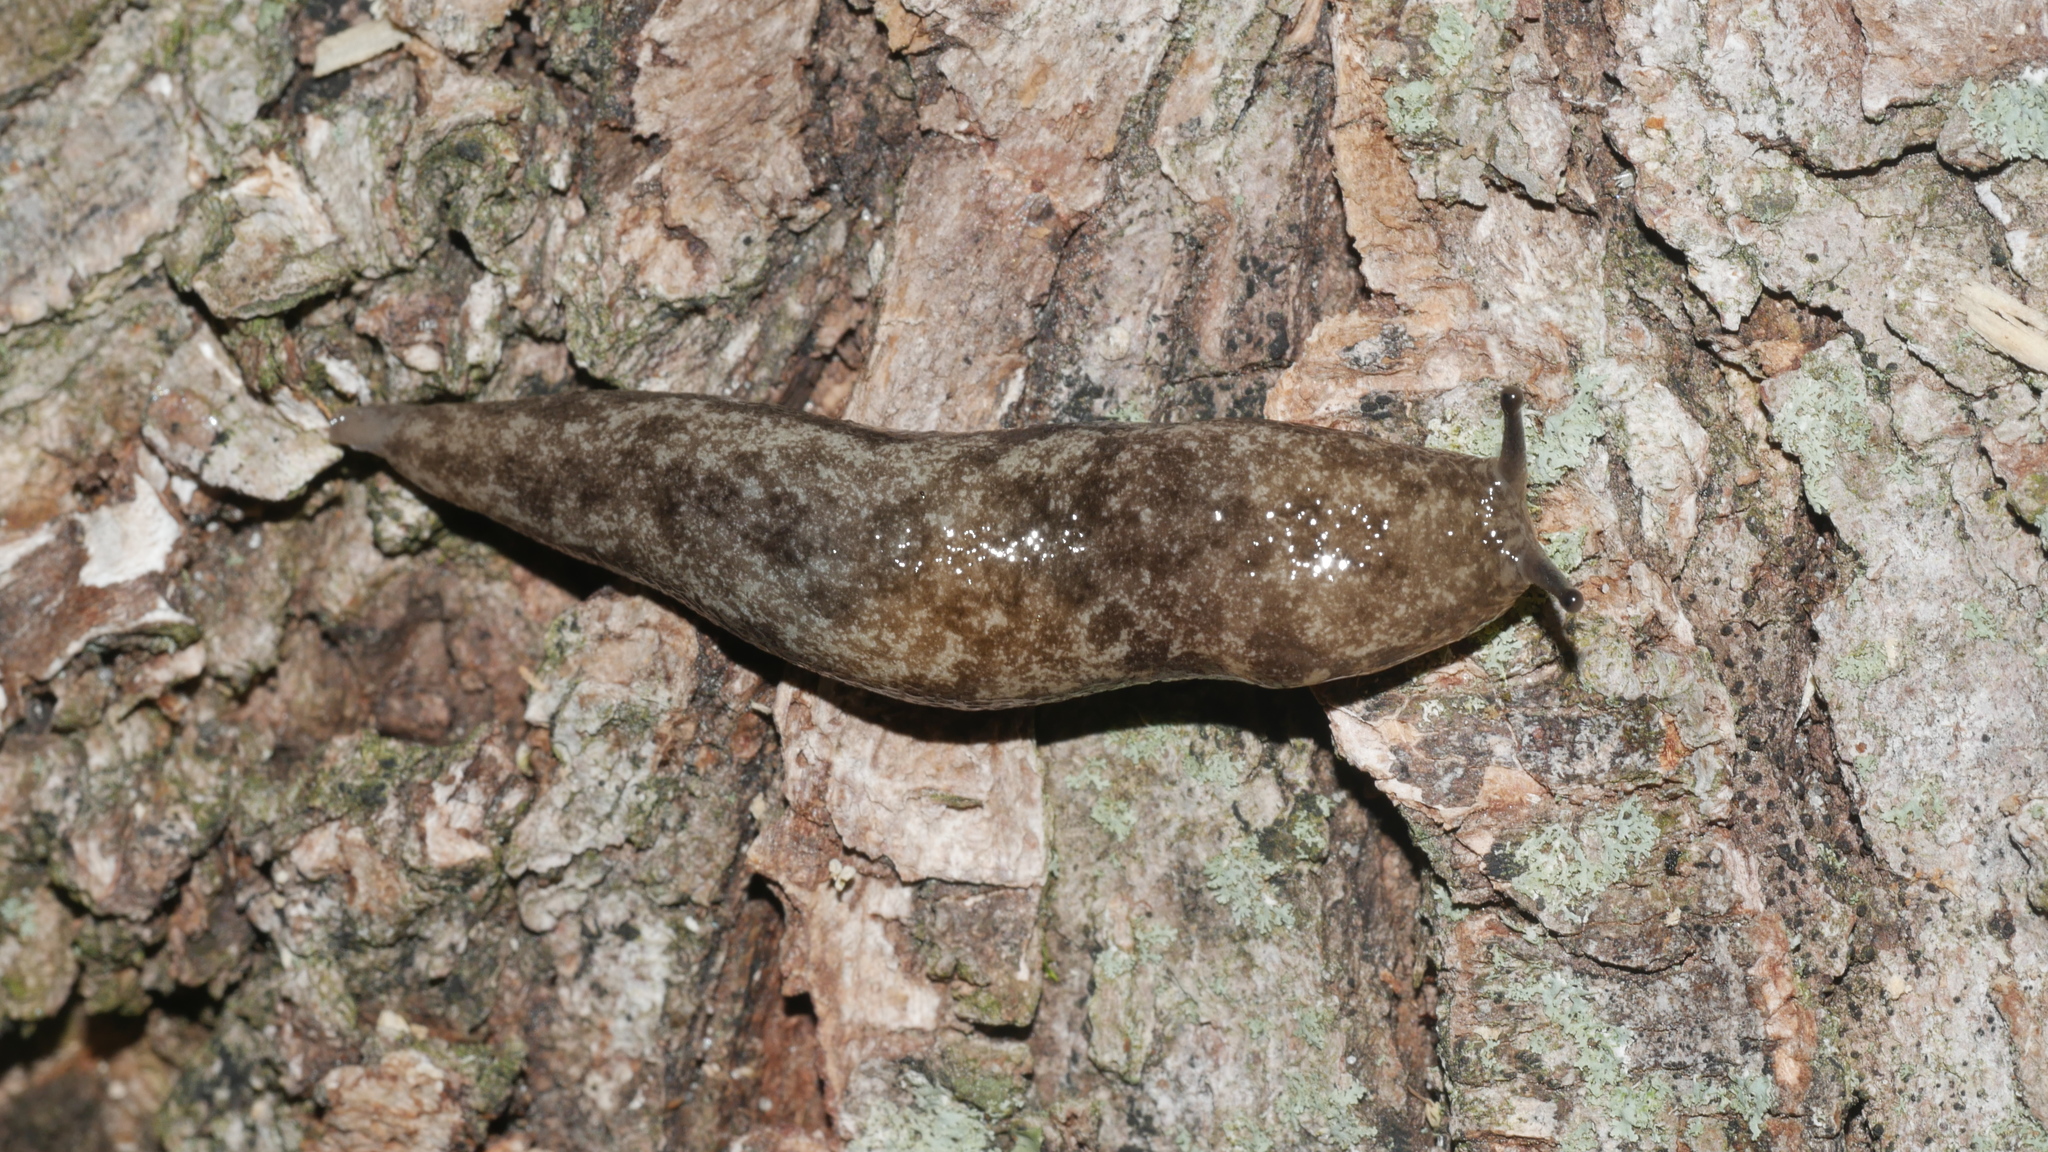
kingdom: Animalia
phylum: Mollusca
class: Gastropoda
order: Stylommatophora
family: Philomycidae
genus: Megapallifera
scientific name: Megapallifera mutabilis
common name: Changeable mantleslug
